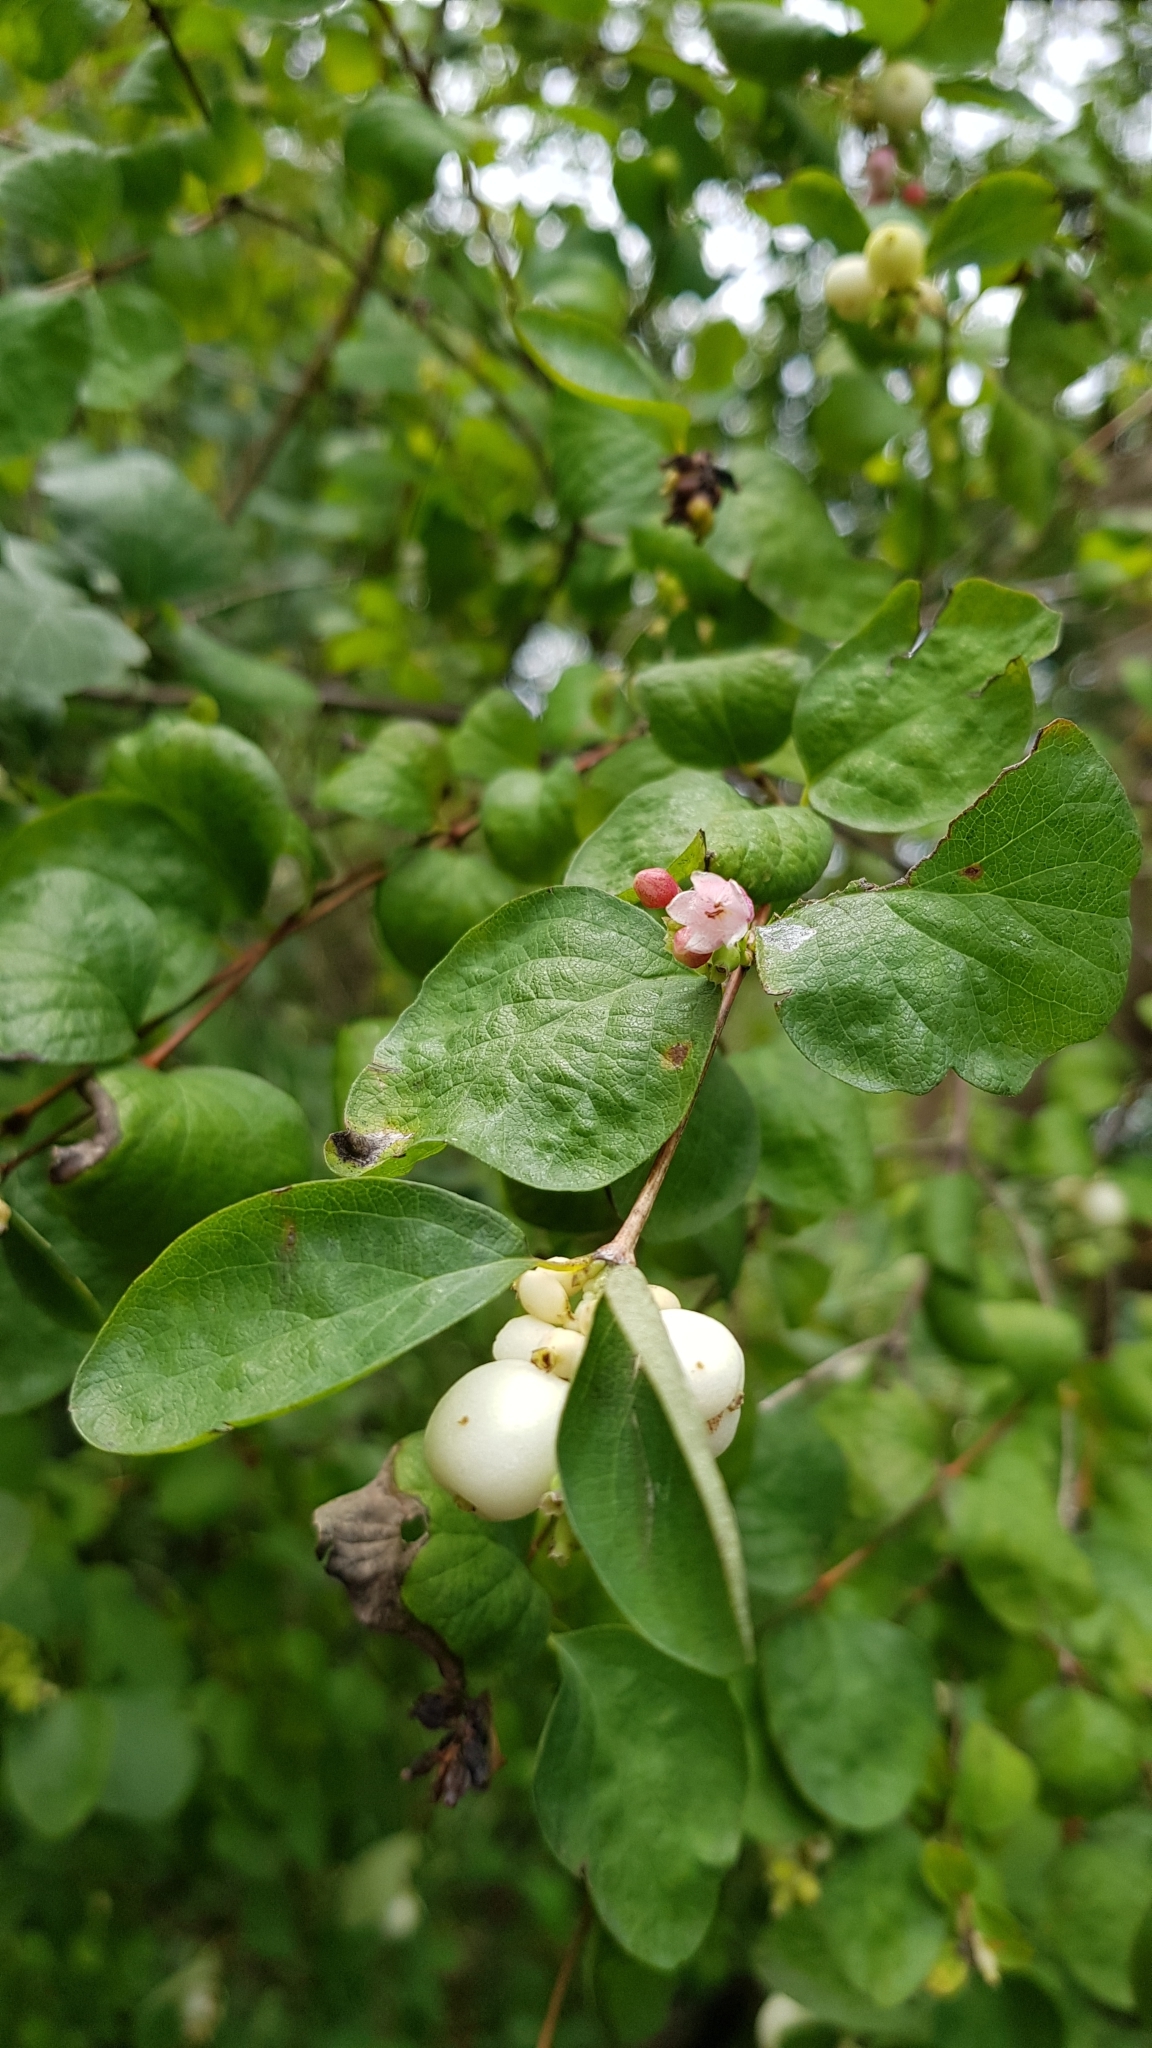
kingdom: Plantae
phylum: Tracheophyta
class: Magnoliopsida
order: Dipsacales
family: Caprifoliaceae
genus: Symphoricarpos
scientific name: Symphoricarpos albus
